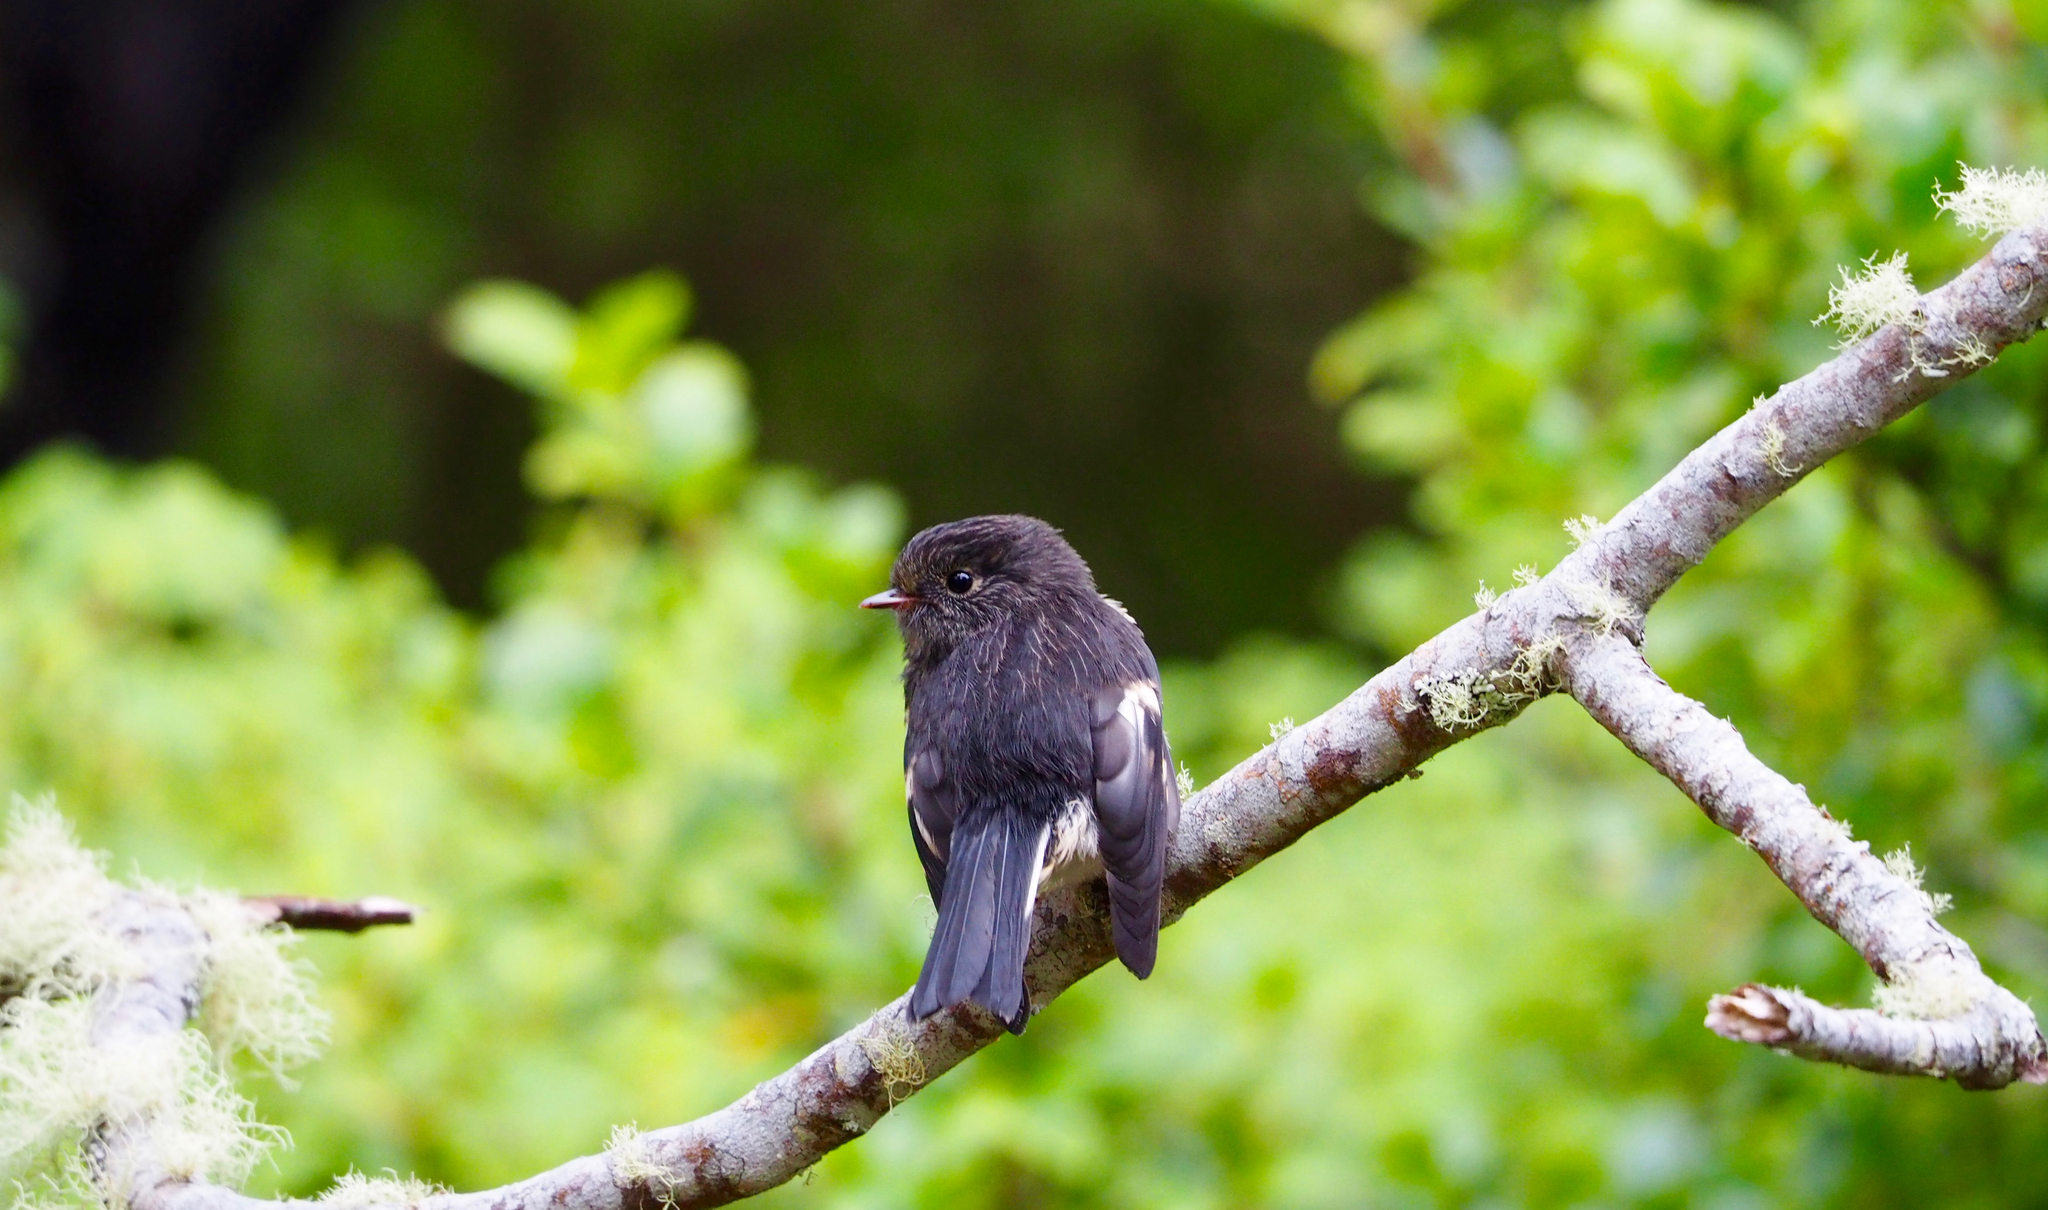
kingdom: Animalia
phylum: Chordata
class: Aves
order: Passeriformes
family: Petroicidae
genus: Petroica
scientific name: Petroica macrocephala
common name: Tomtit
